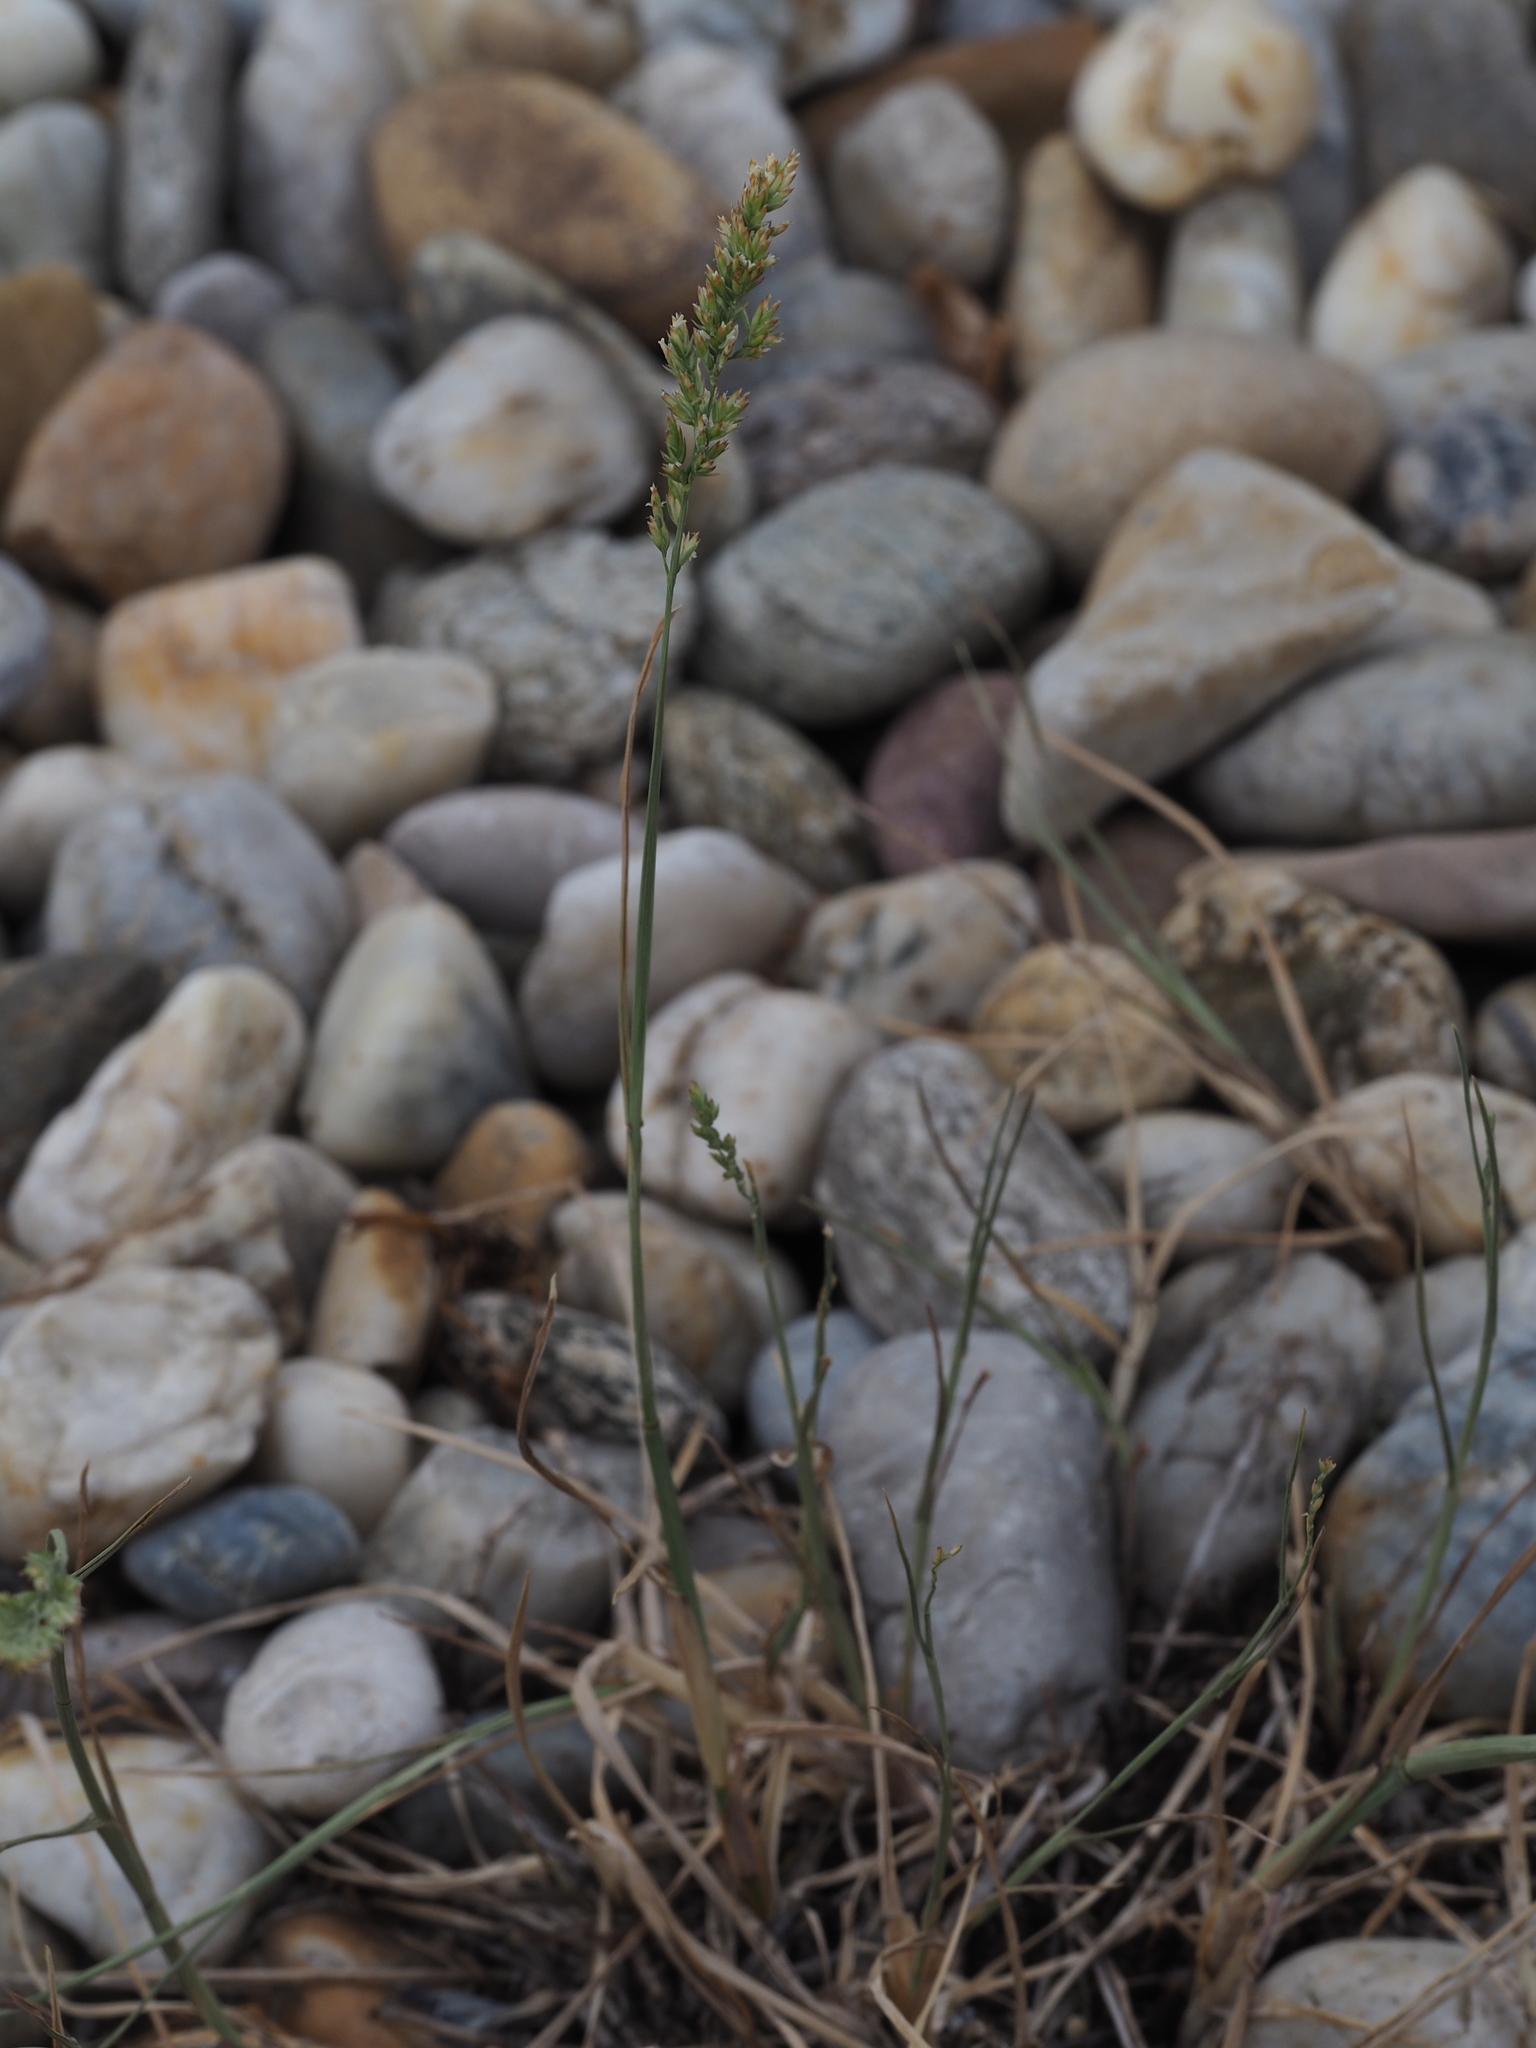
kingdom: Plantae
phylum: Tracheophyta
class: Liliopsida
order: Poales
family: Poaceae
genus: Poa
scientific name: Poa compressa
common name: Canada bluegrass
